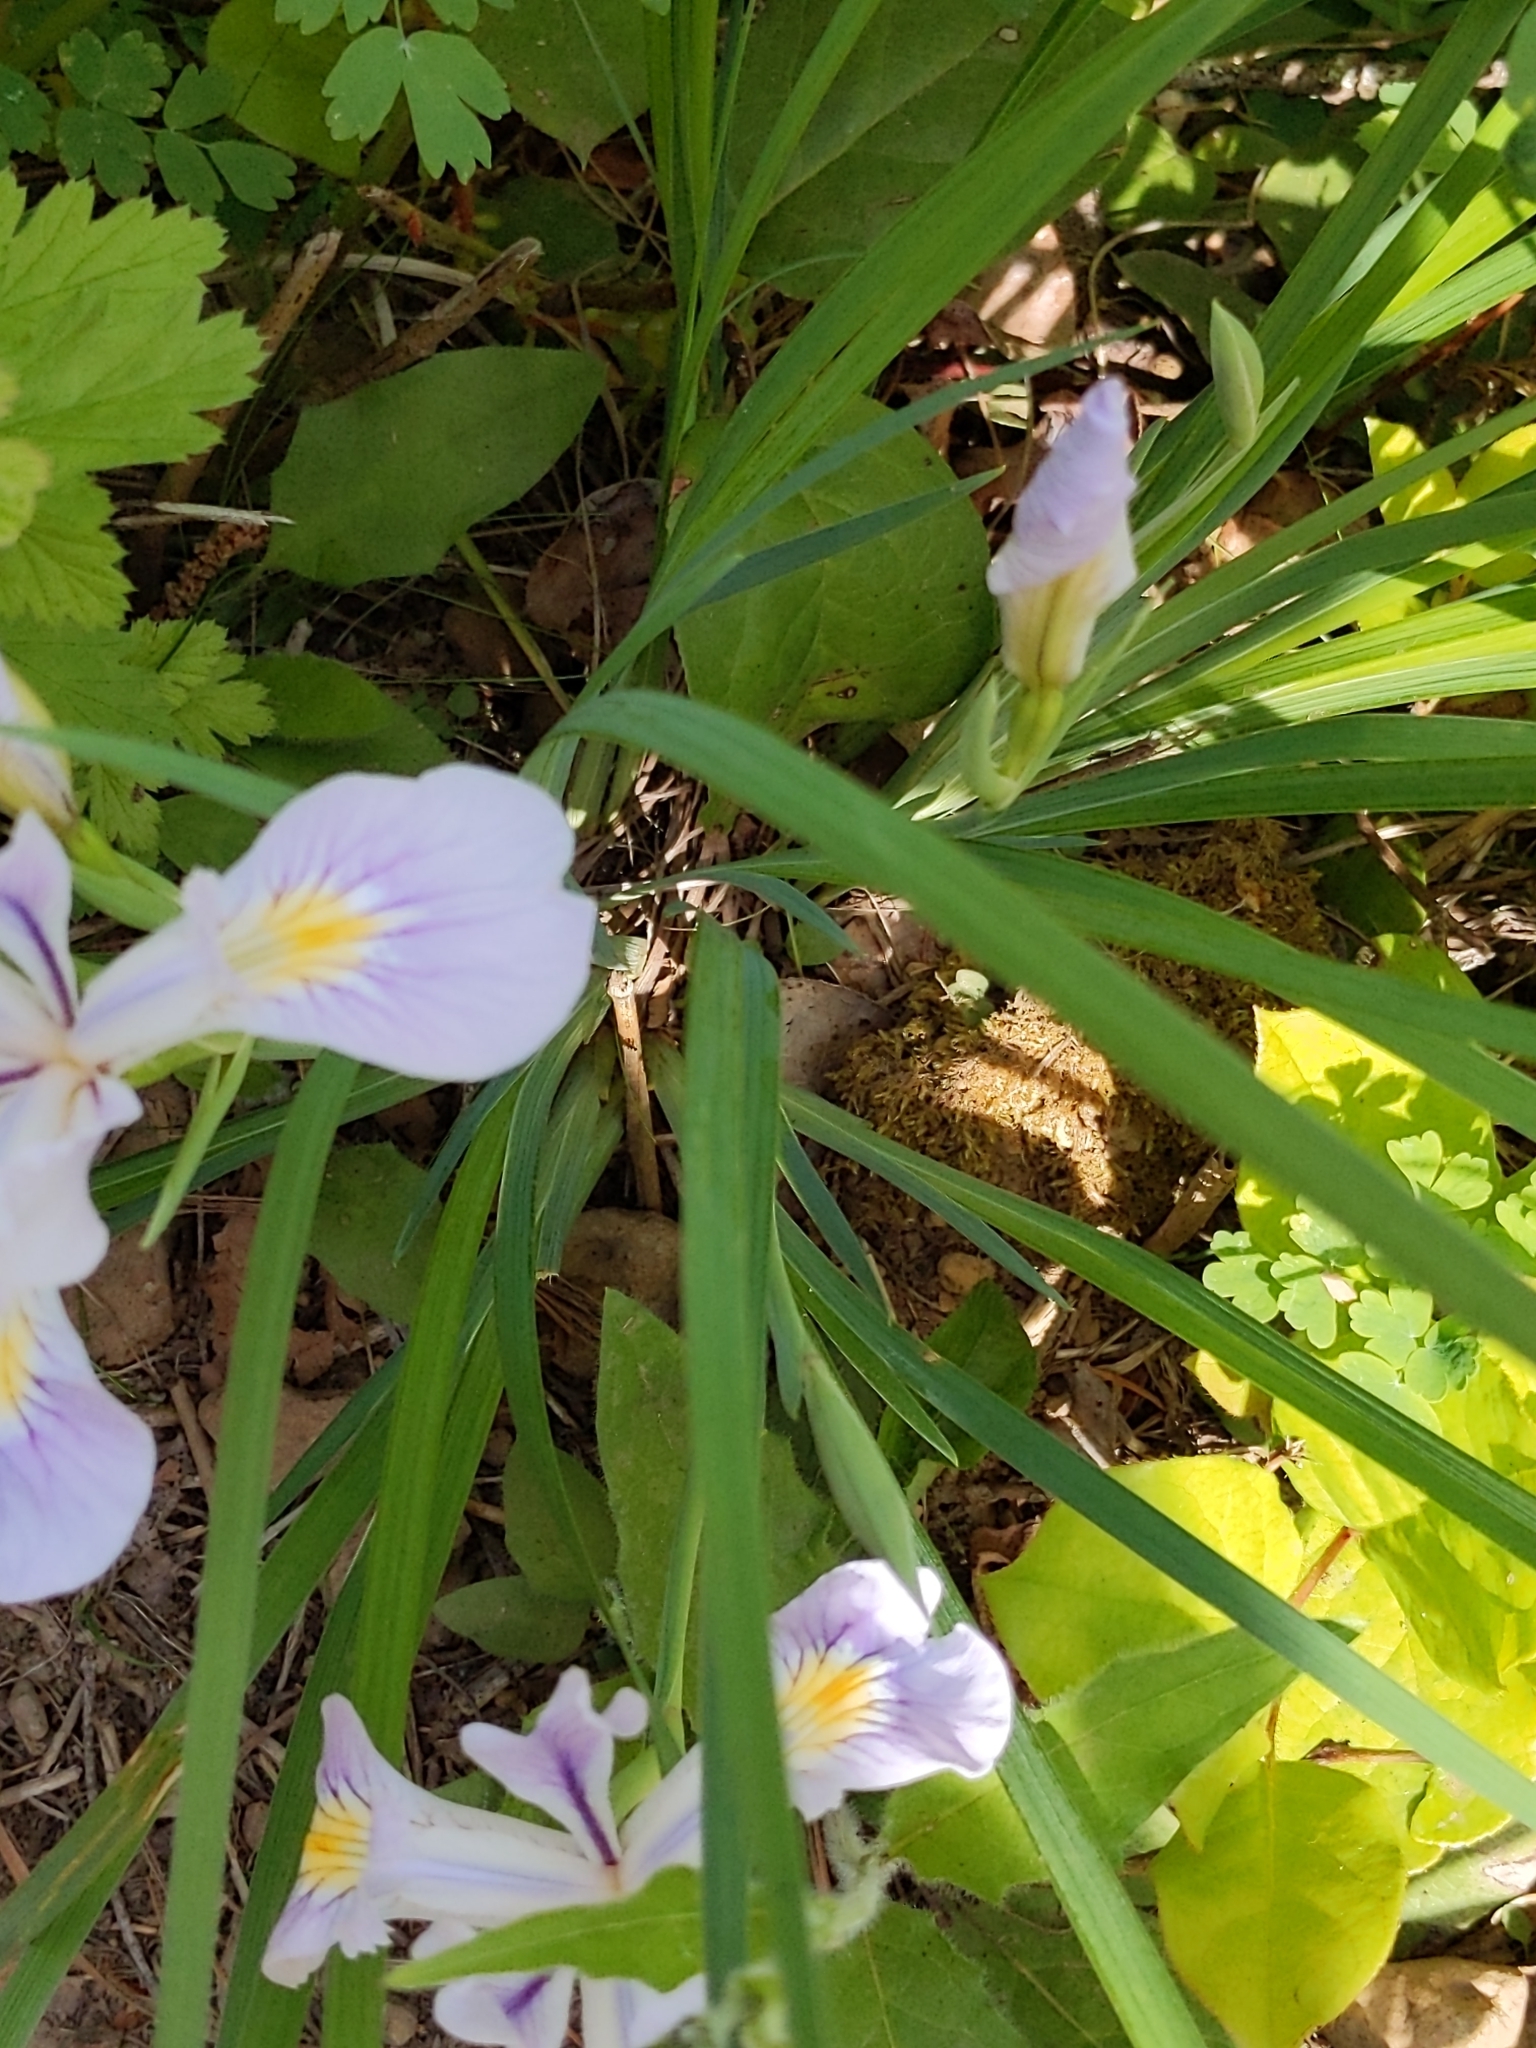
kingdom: Plantae
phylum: Tracheophyta
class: Liliopsida
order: Asparagales
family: Iridaceae
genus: Iris
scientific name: Iris tenax
